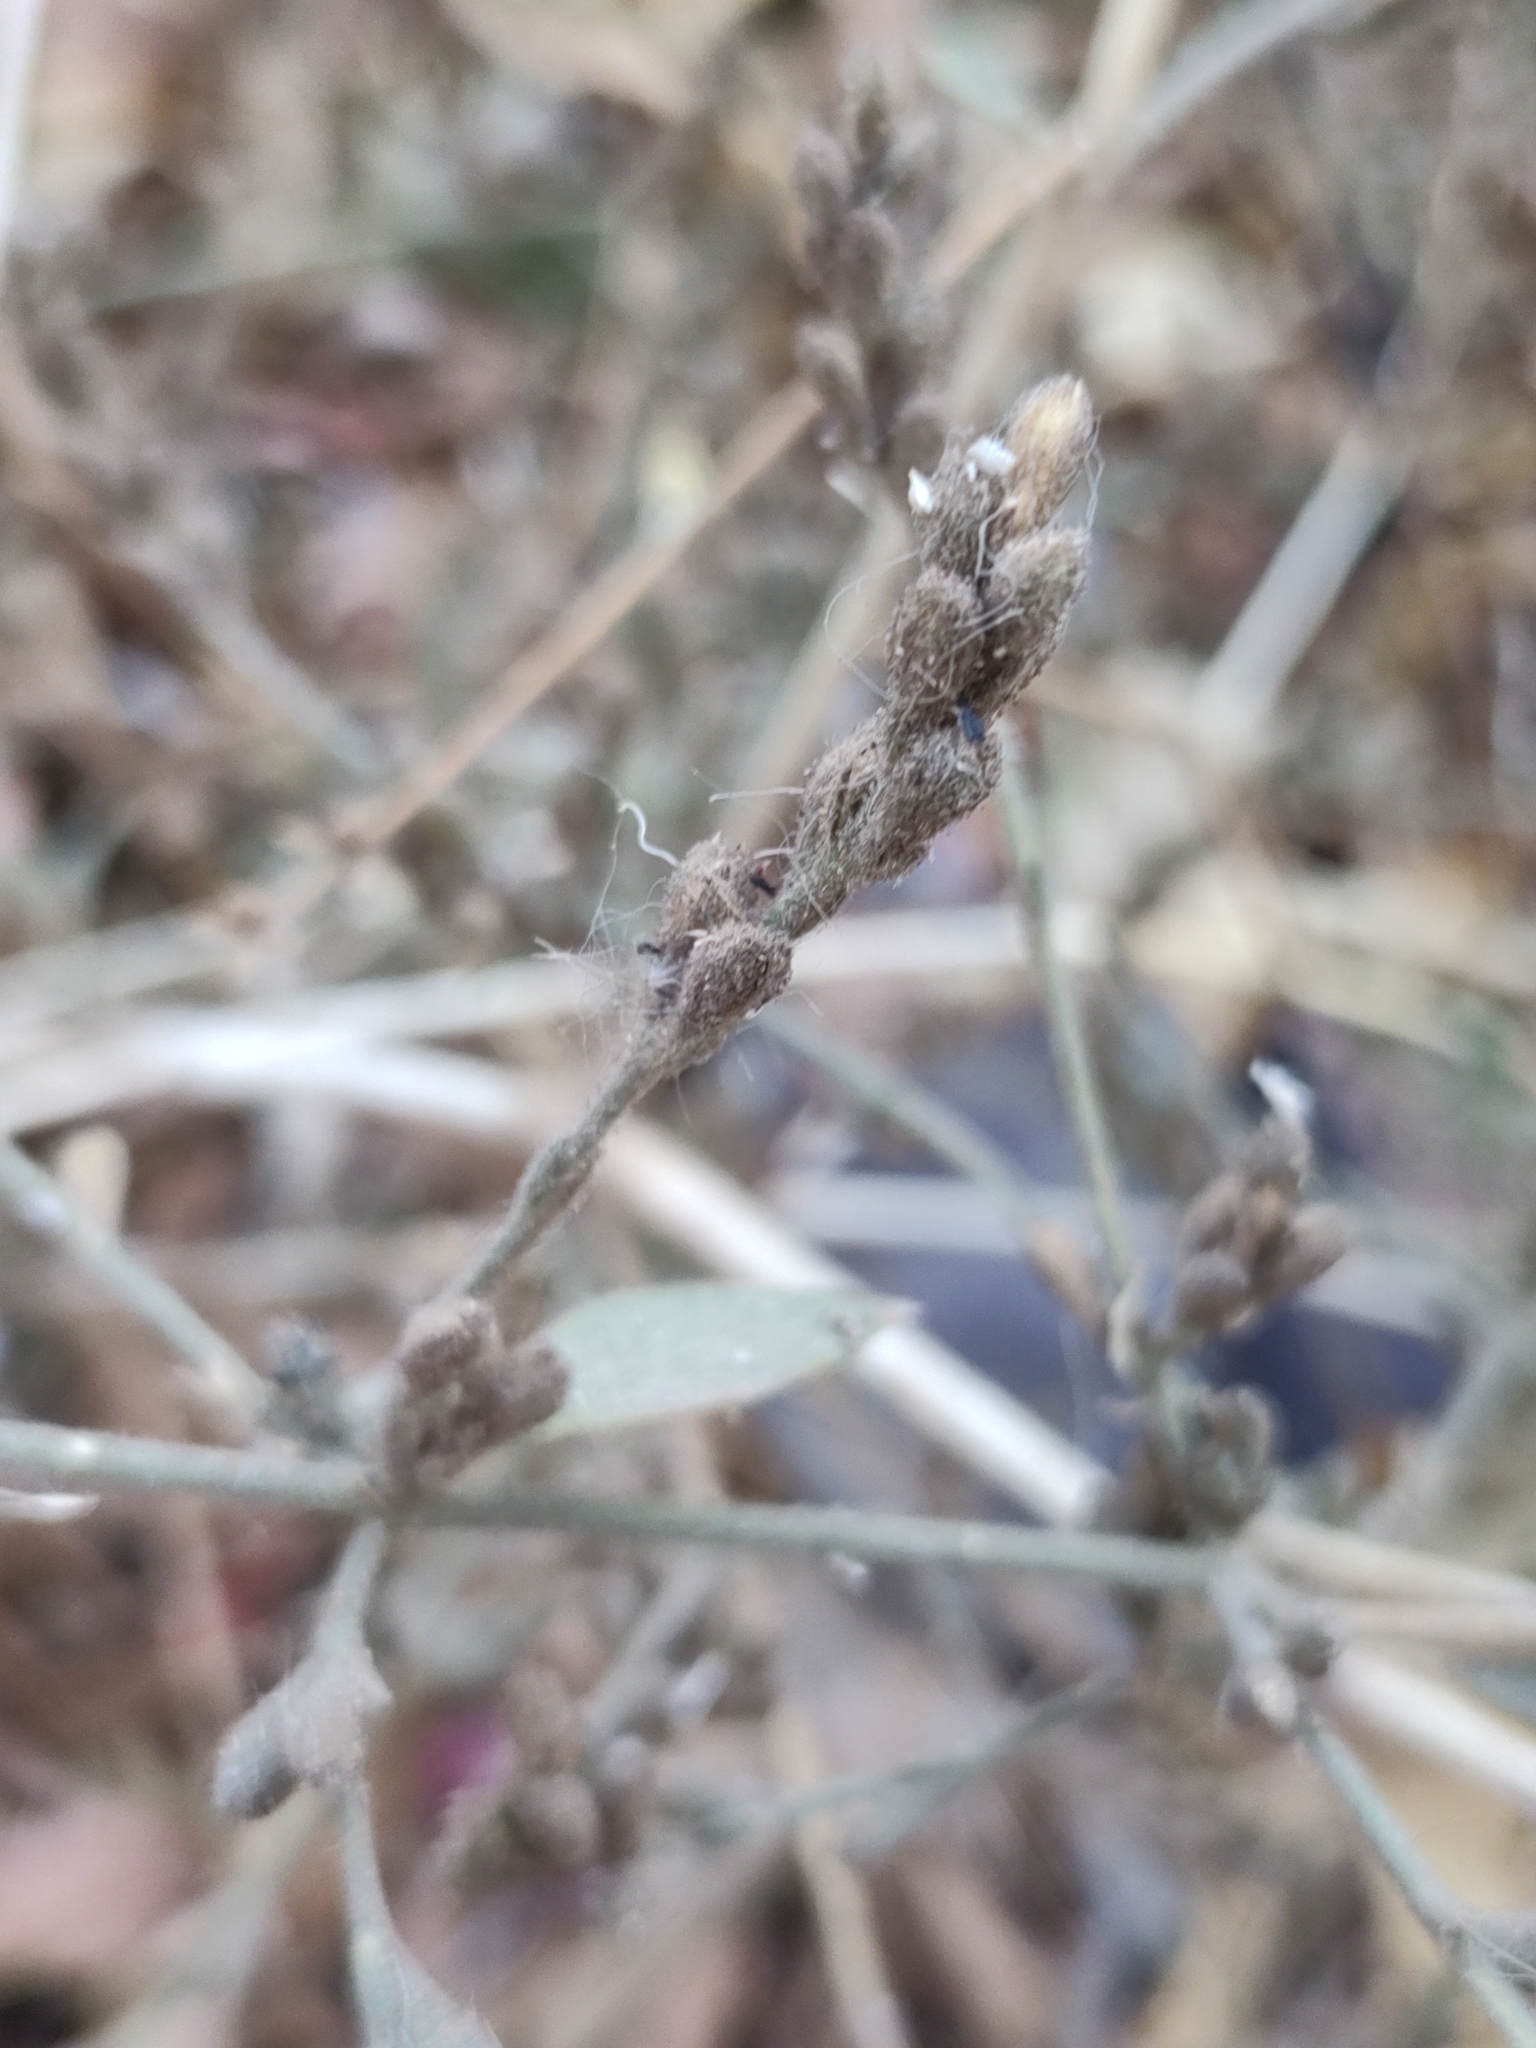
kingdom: Plantae
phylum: Tracheophyta
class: Magnoliopsida
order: Lamiales
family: Acanthaceae
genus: Henrya
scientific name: Henrya insularis
